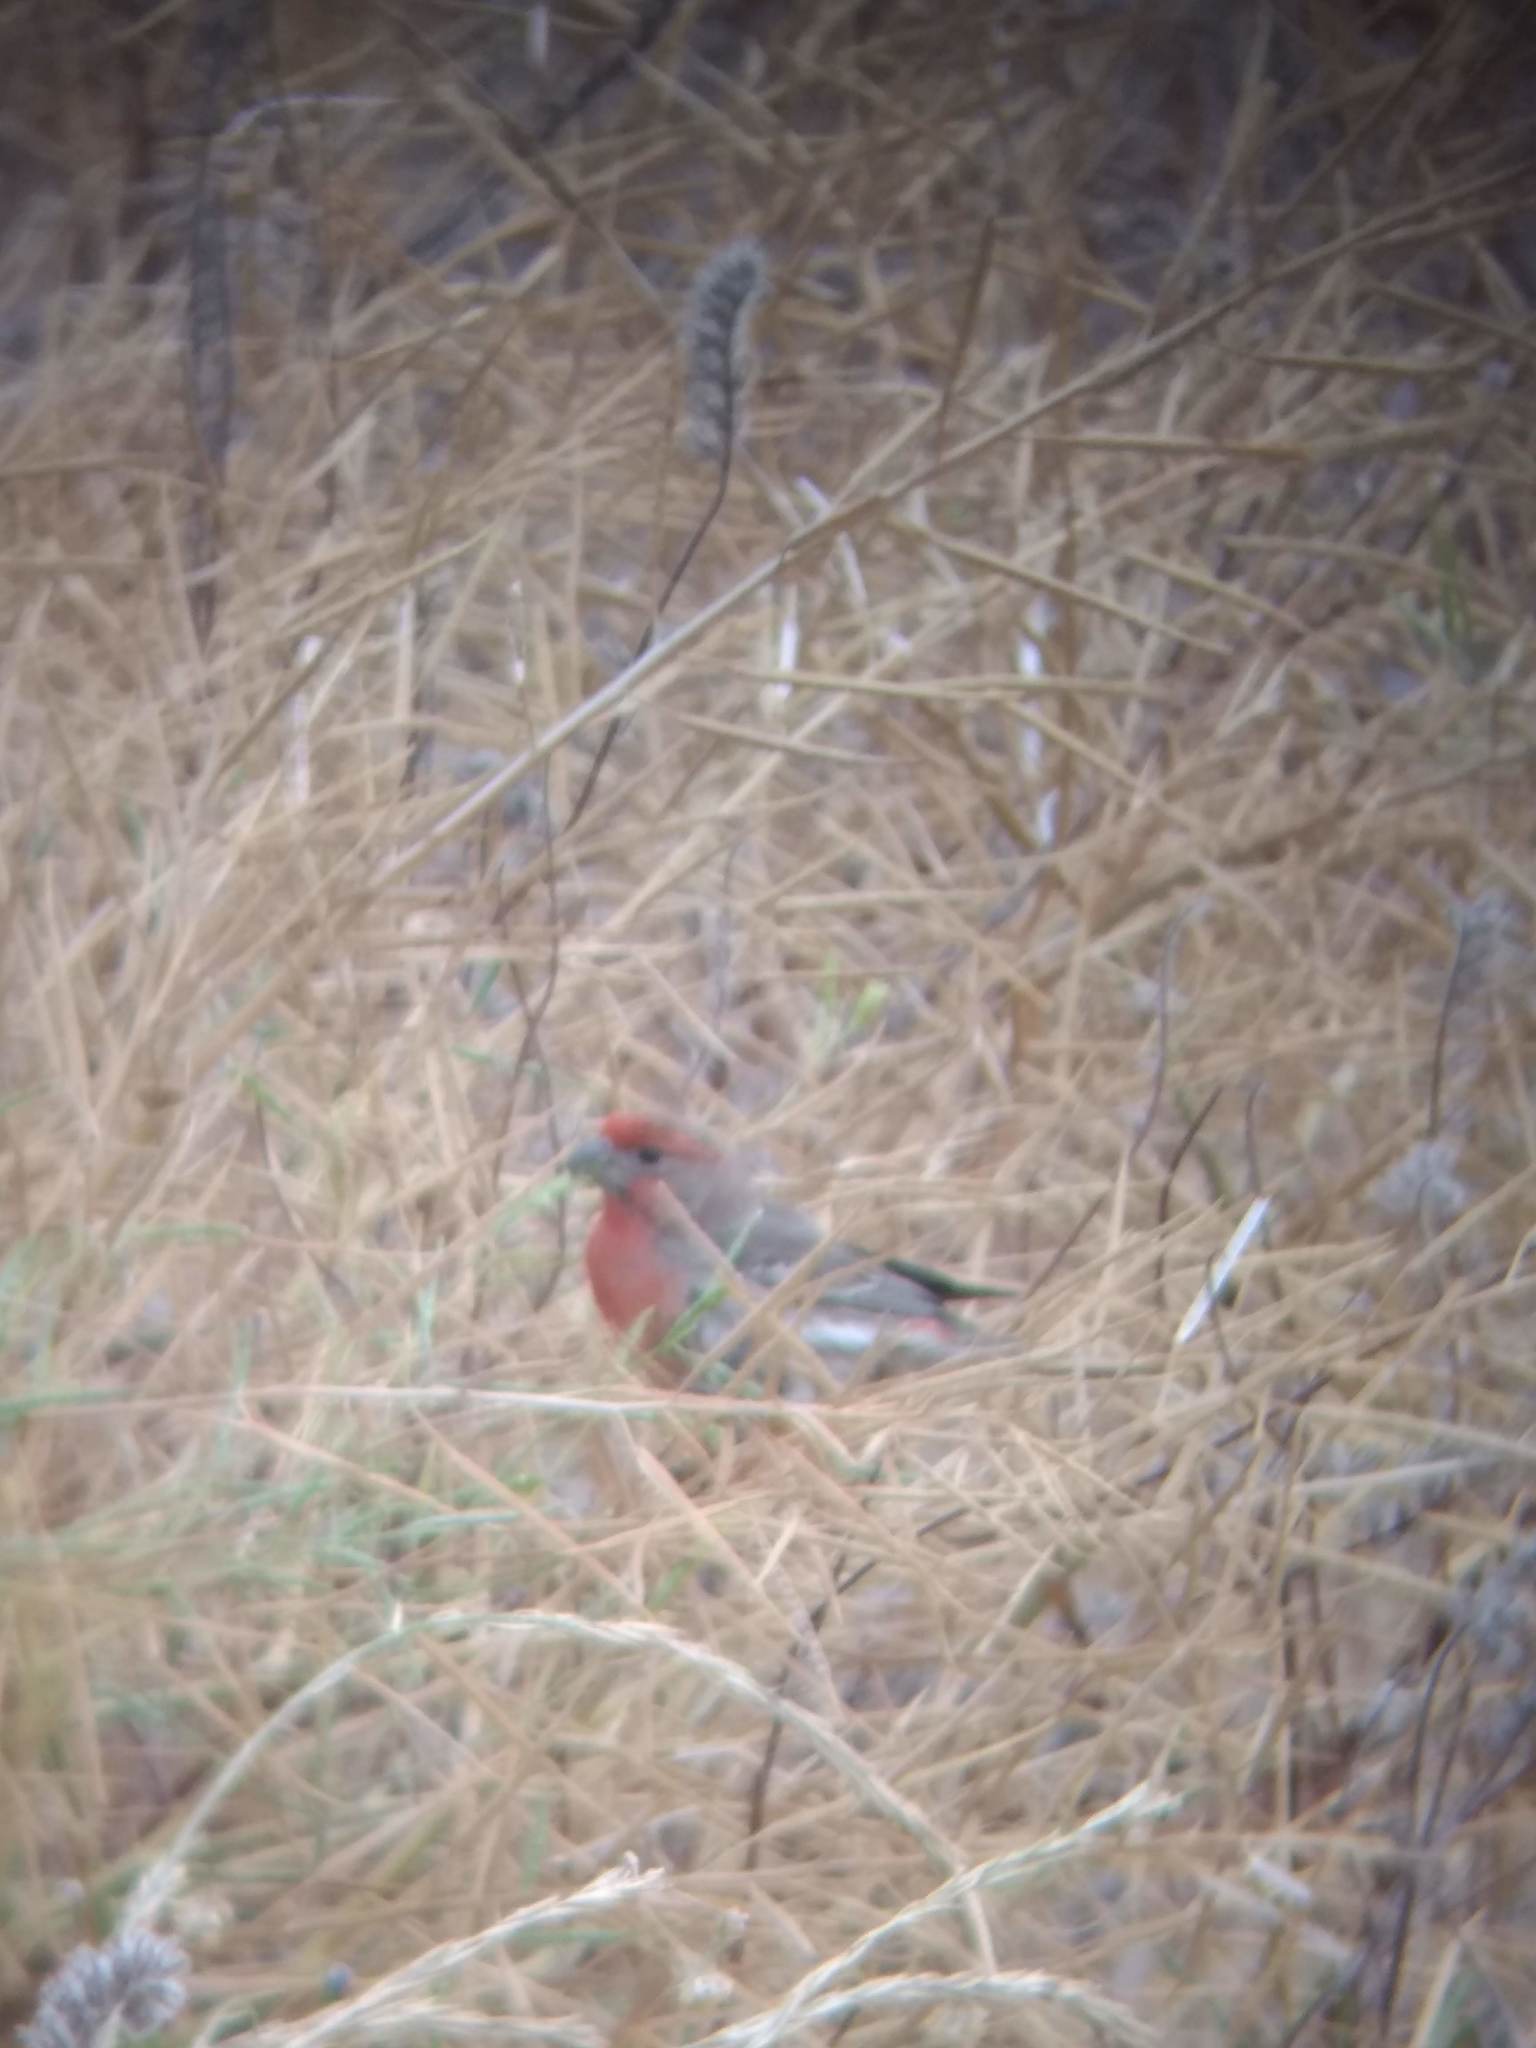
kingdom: Animalia
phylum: Chordata
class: Aves
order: Passeriformes
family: Fringillidae
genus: Haemorhous
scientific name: Haemorhous mexicanus
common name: House finch
